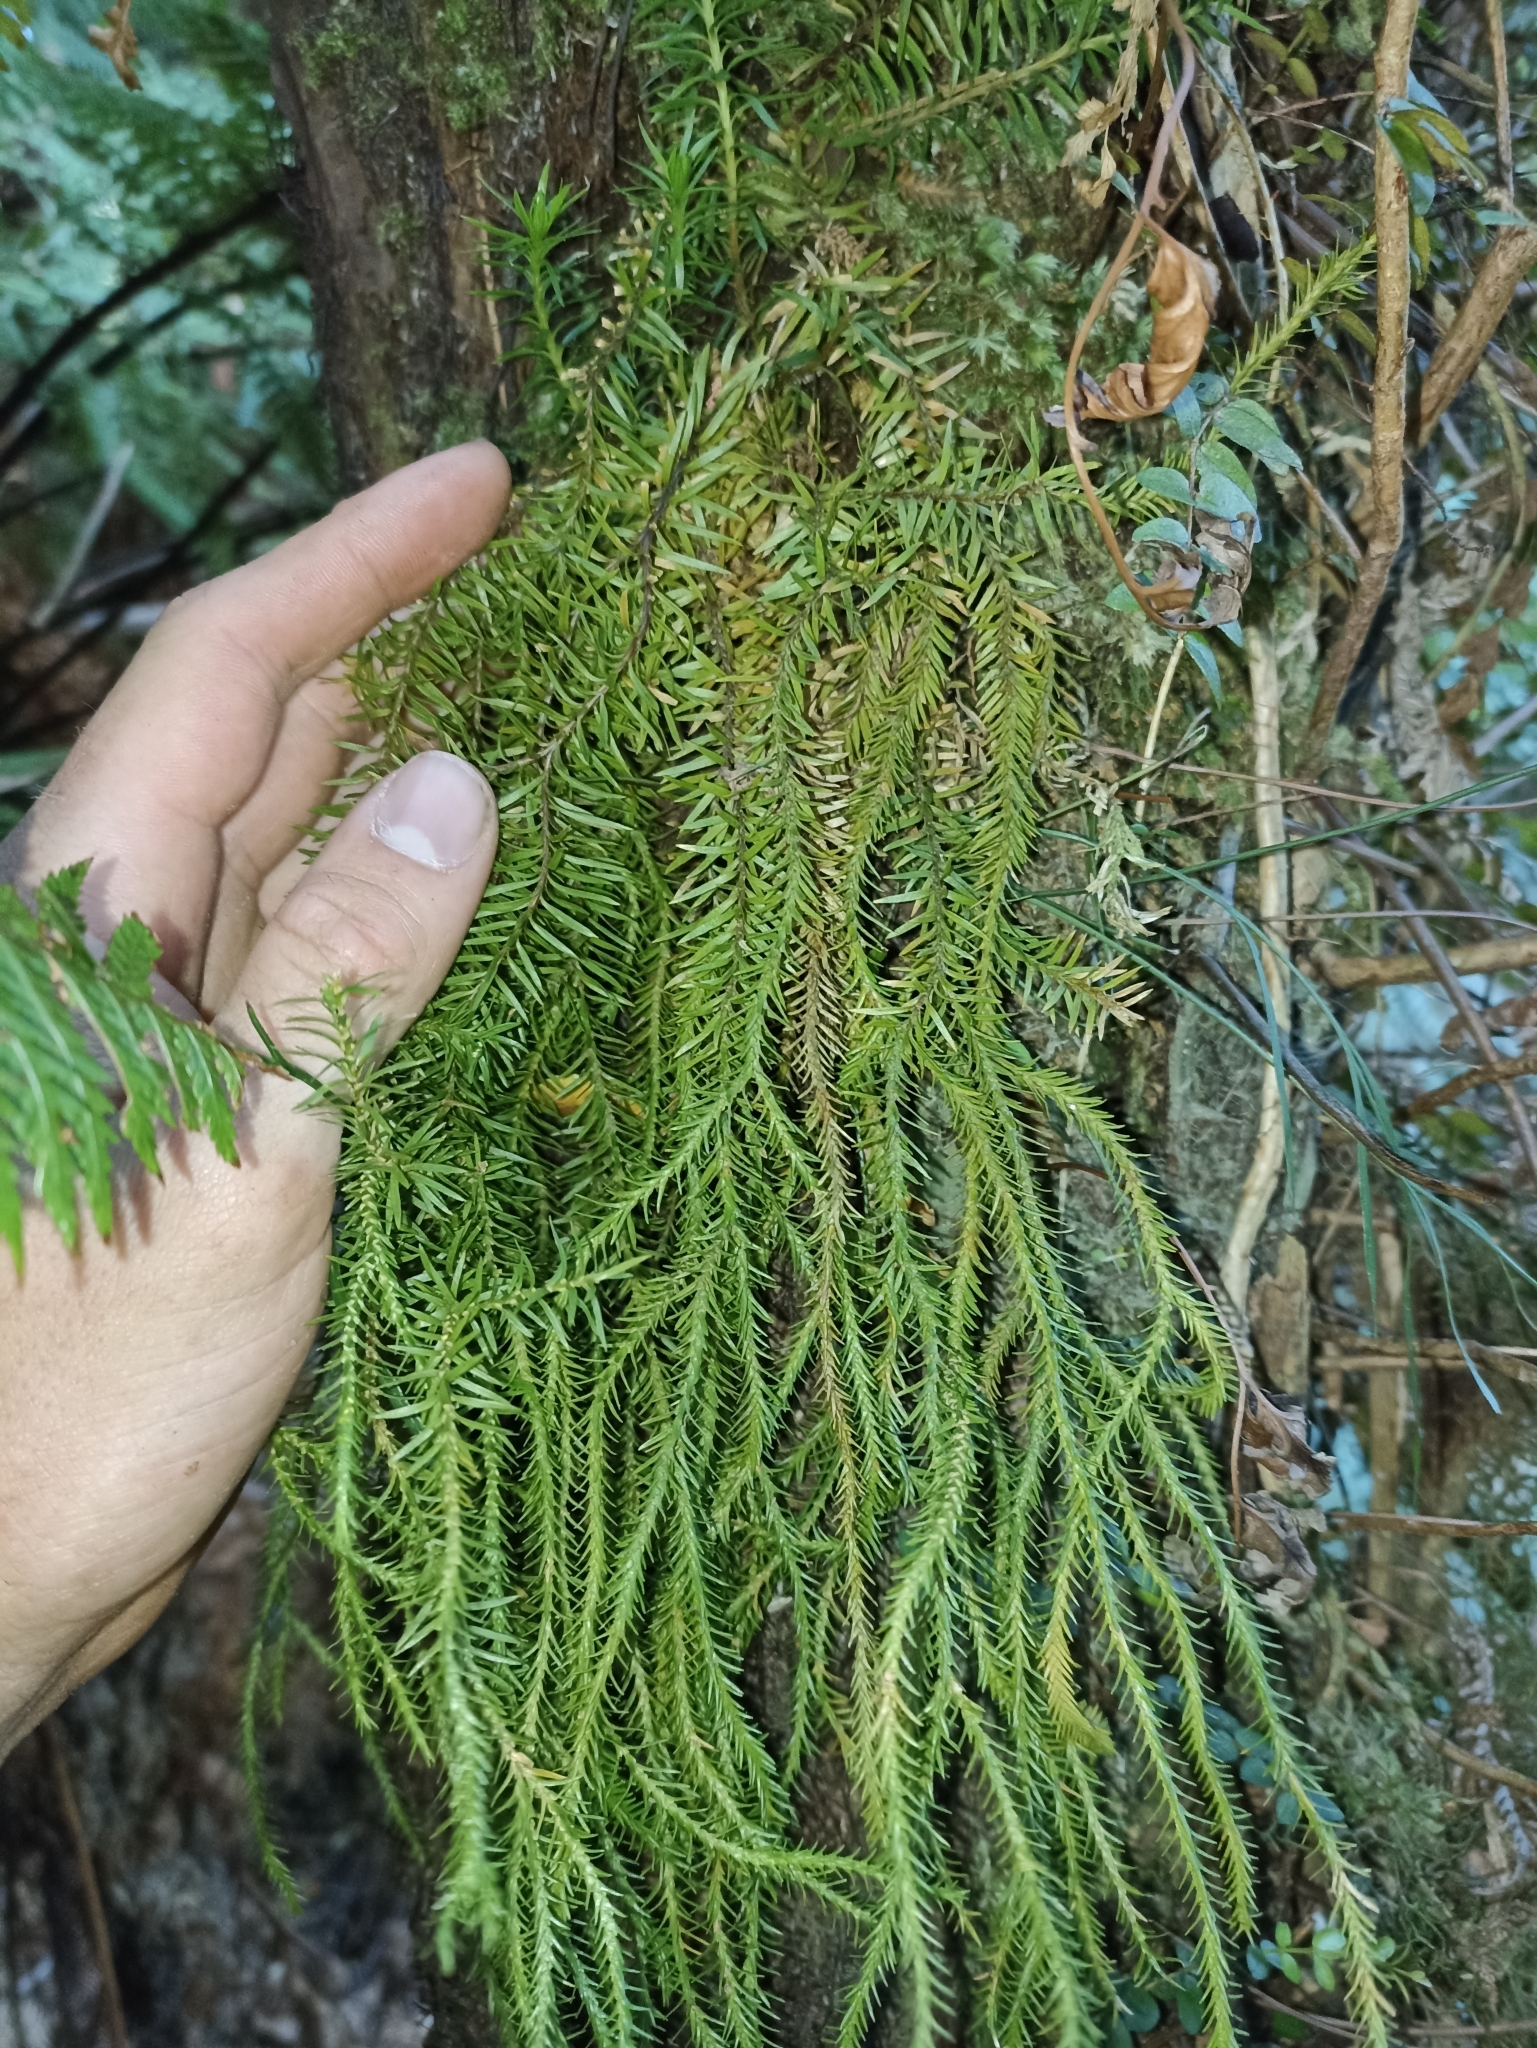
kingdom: Plantae
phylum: Tracheophyta
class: Lycopodiopsida
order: Lycopodiales
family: Lycopodiaceae
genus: Phlegmariurus
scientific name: Phlegmariurus varius
